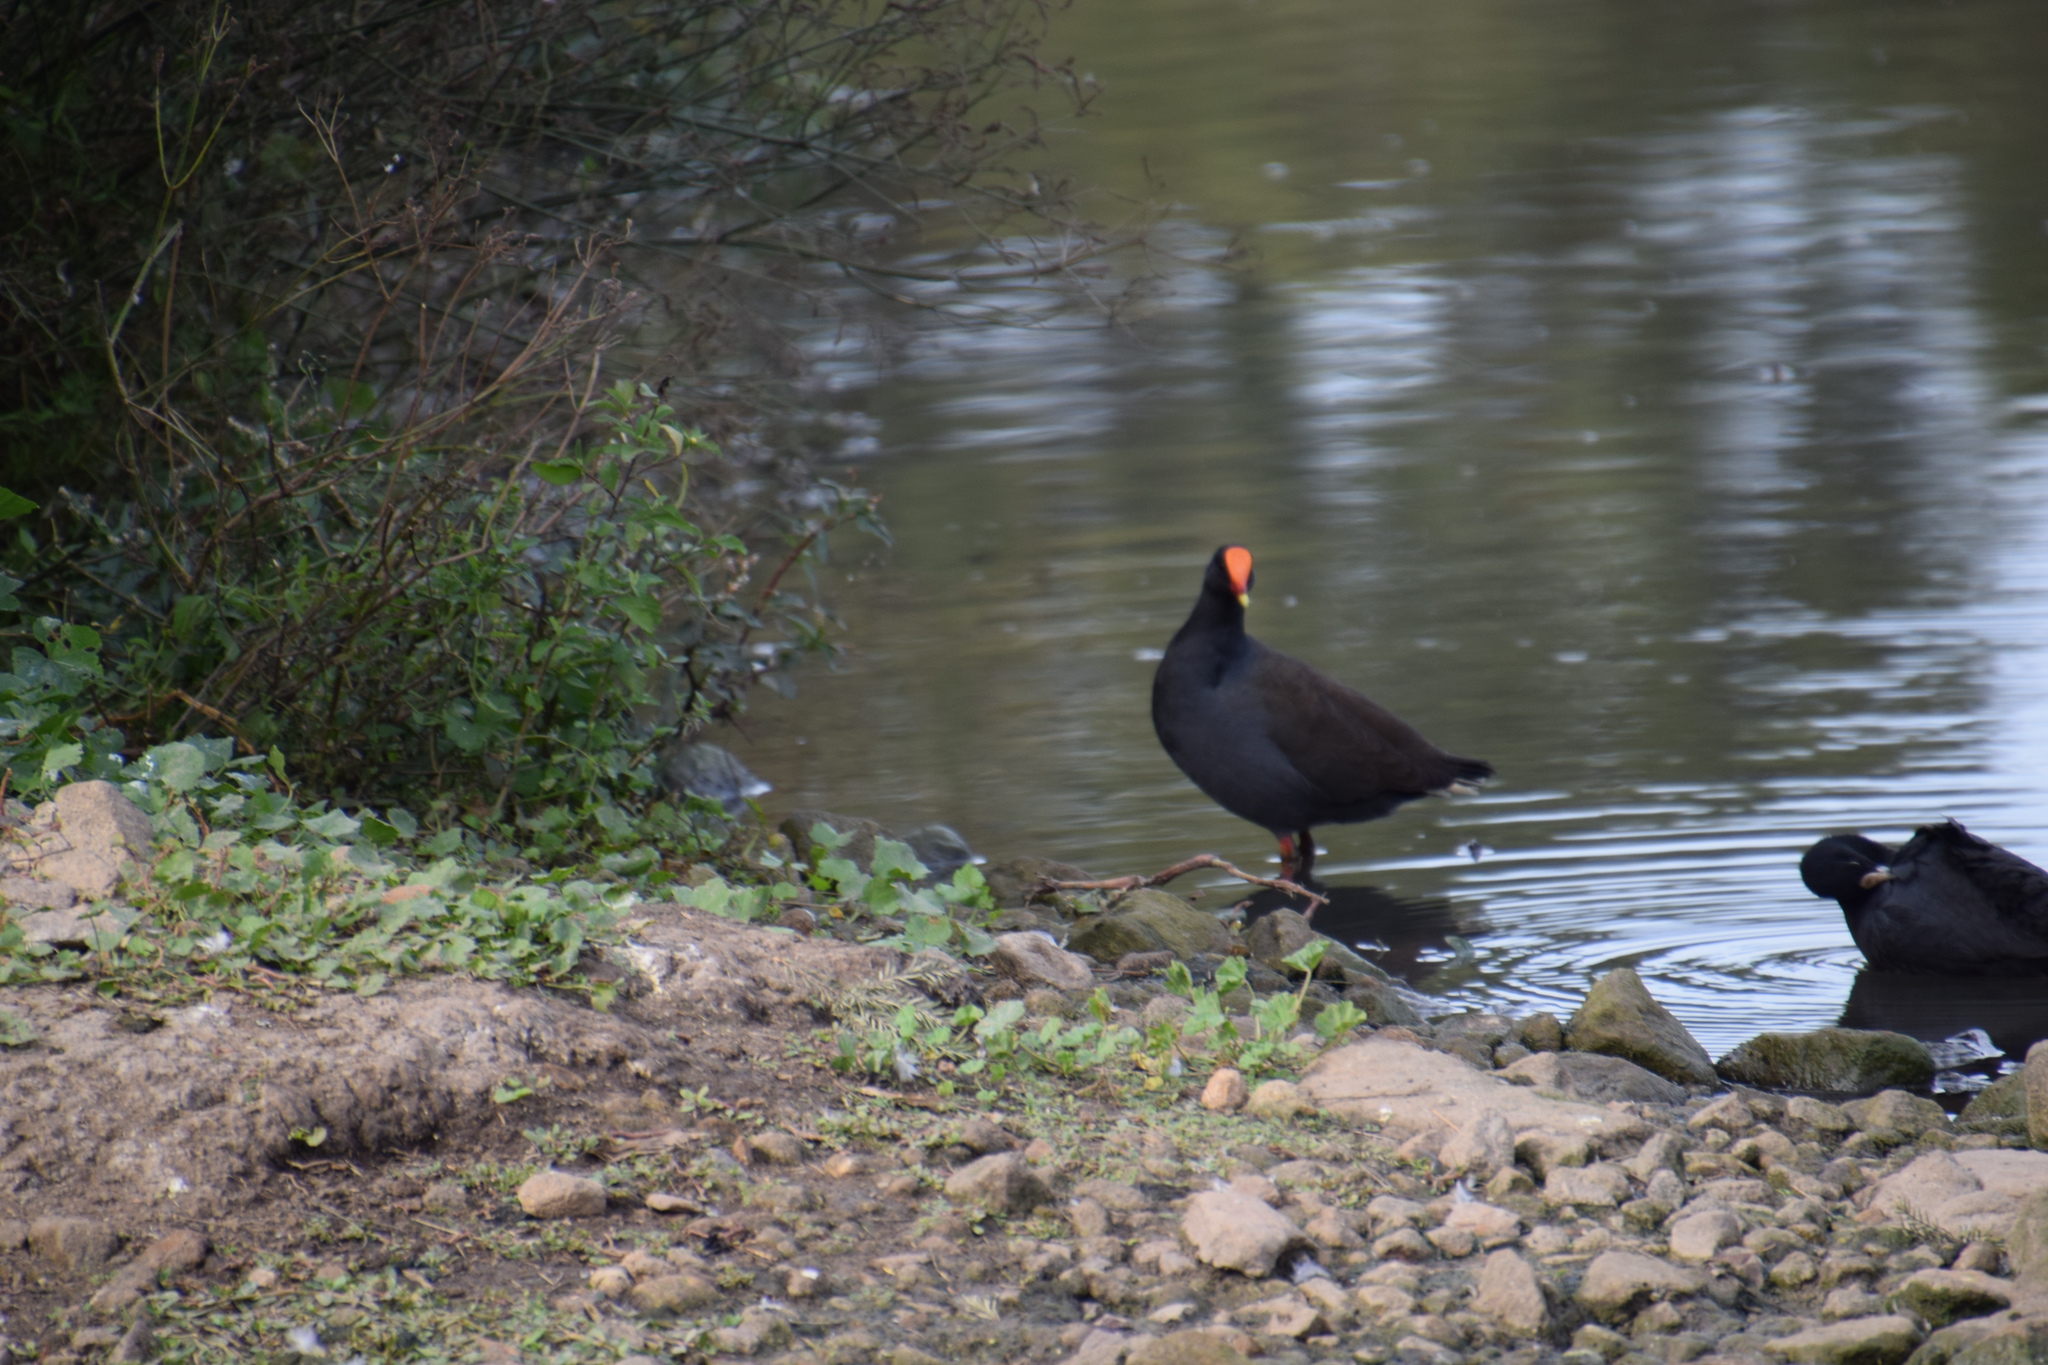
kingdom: Animalia
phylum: Chordata
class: Aves
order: Gruiformes
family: Rallidae
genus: Gallinula
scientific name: Gallinula tenebrosa
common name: Dusky moorhen
